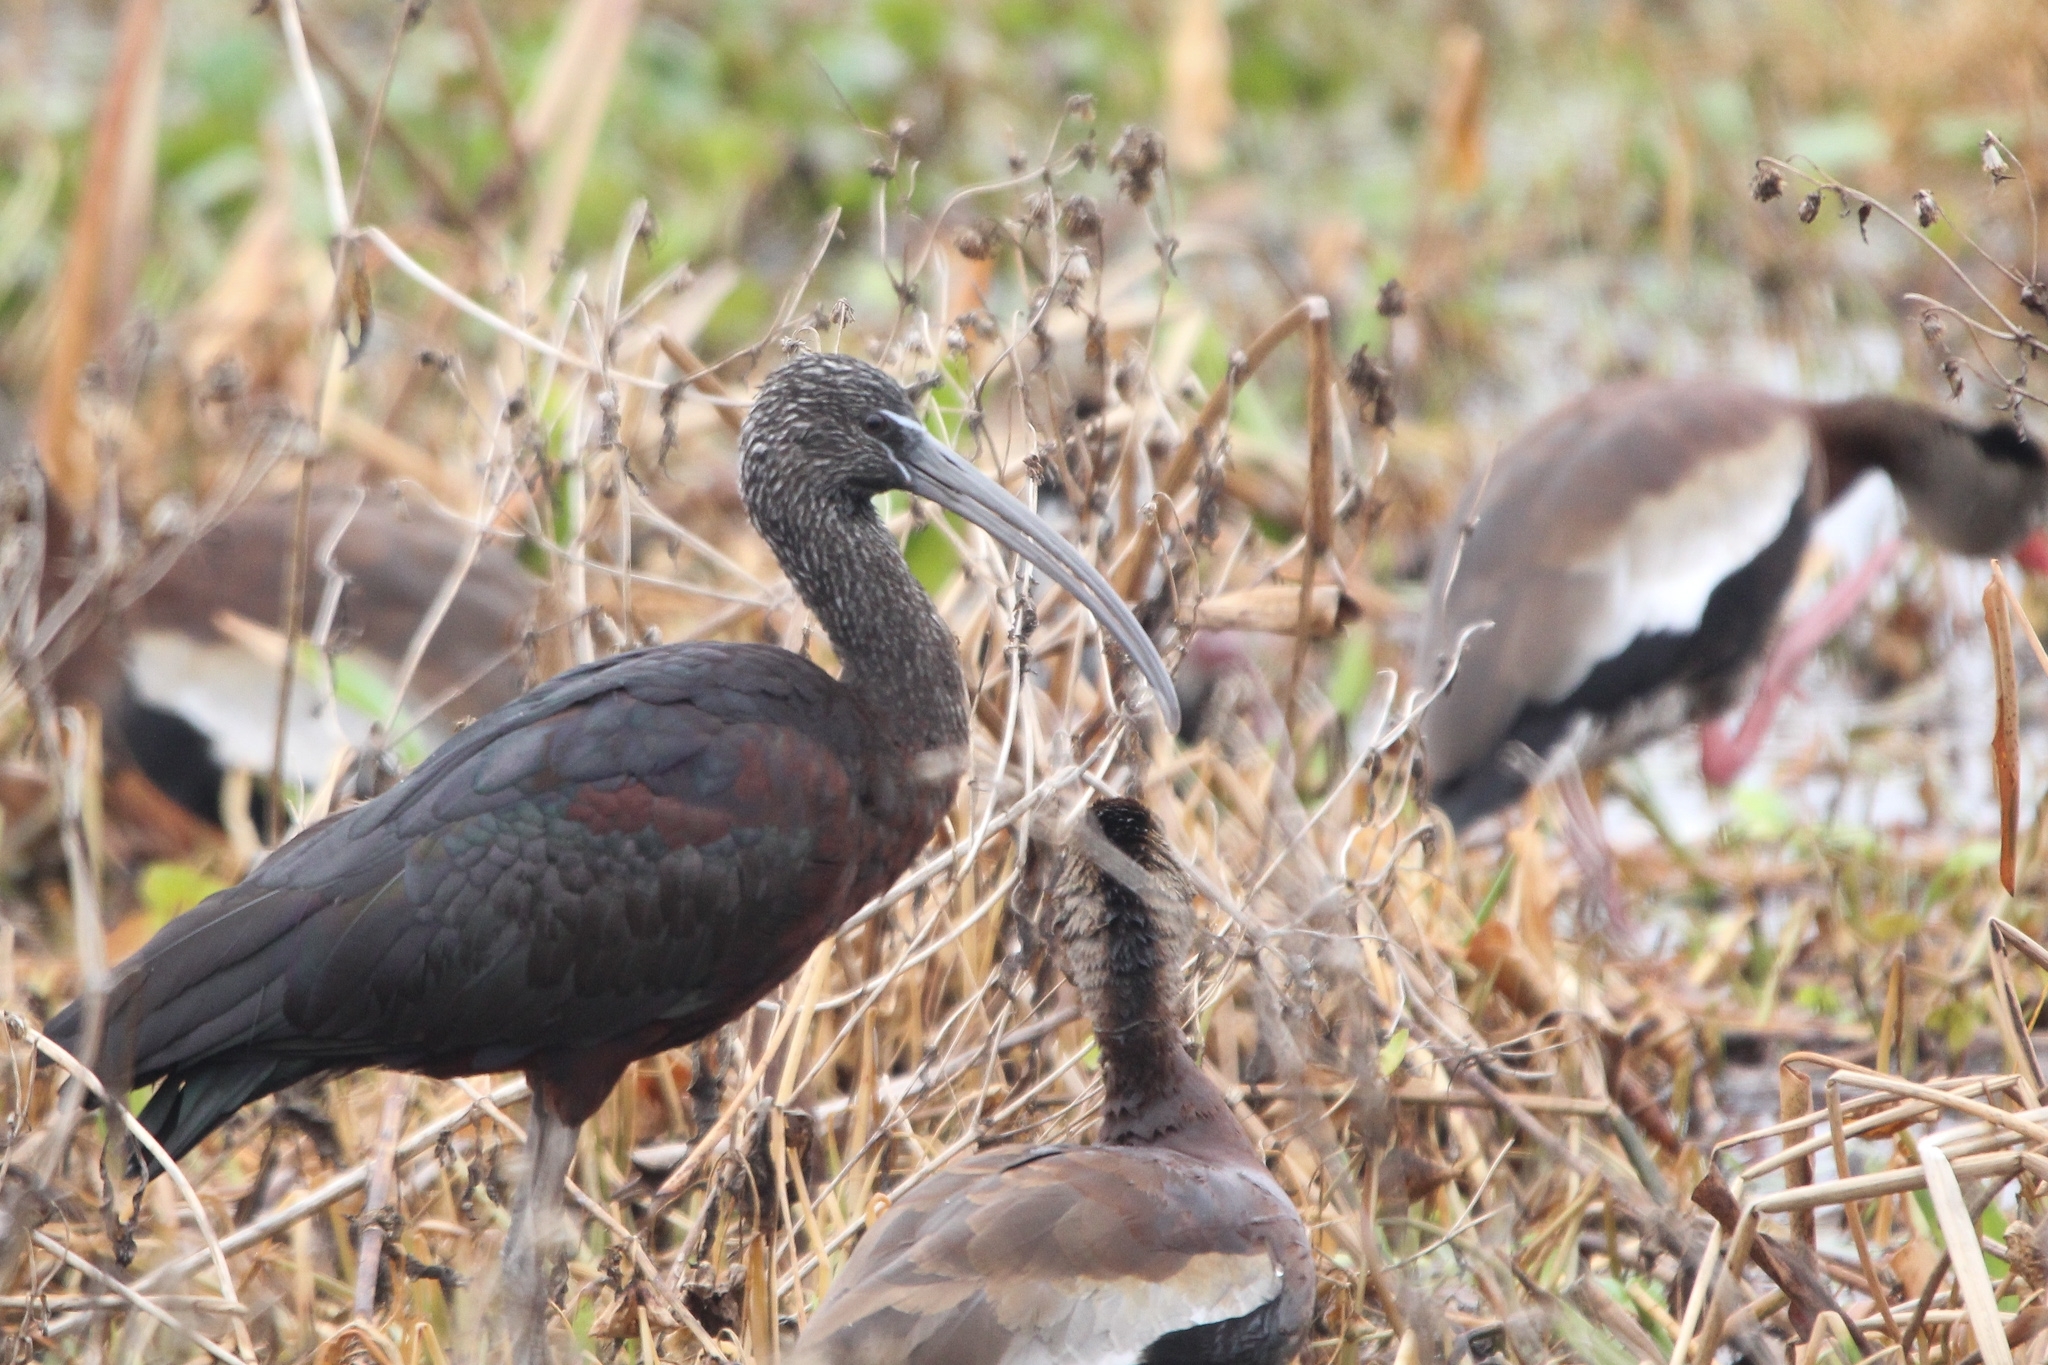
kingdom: Animalia
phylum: Chordata
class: Aves
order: Pelecaniformes
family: Threskiornithidae
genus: Plegadis
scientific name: Plegadis falcinellus
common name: Glossy ibis
